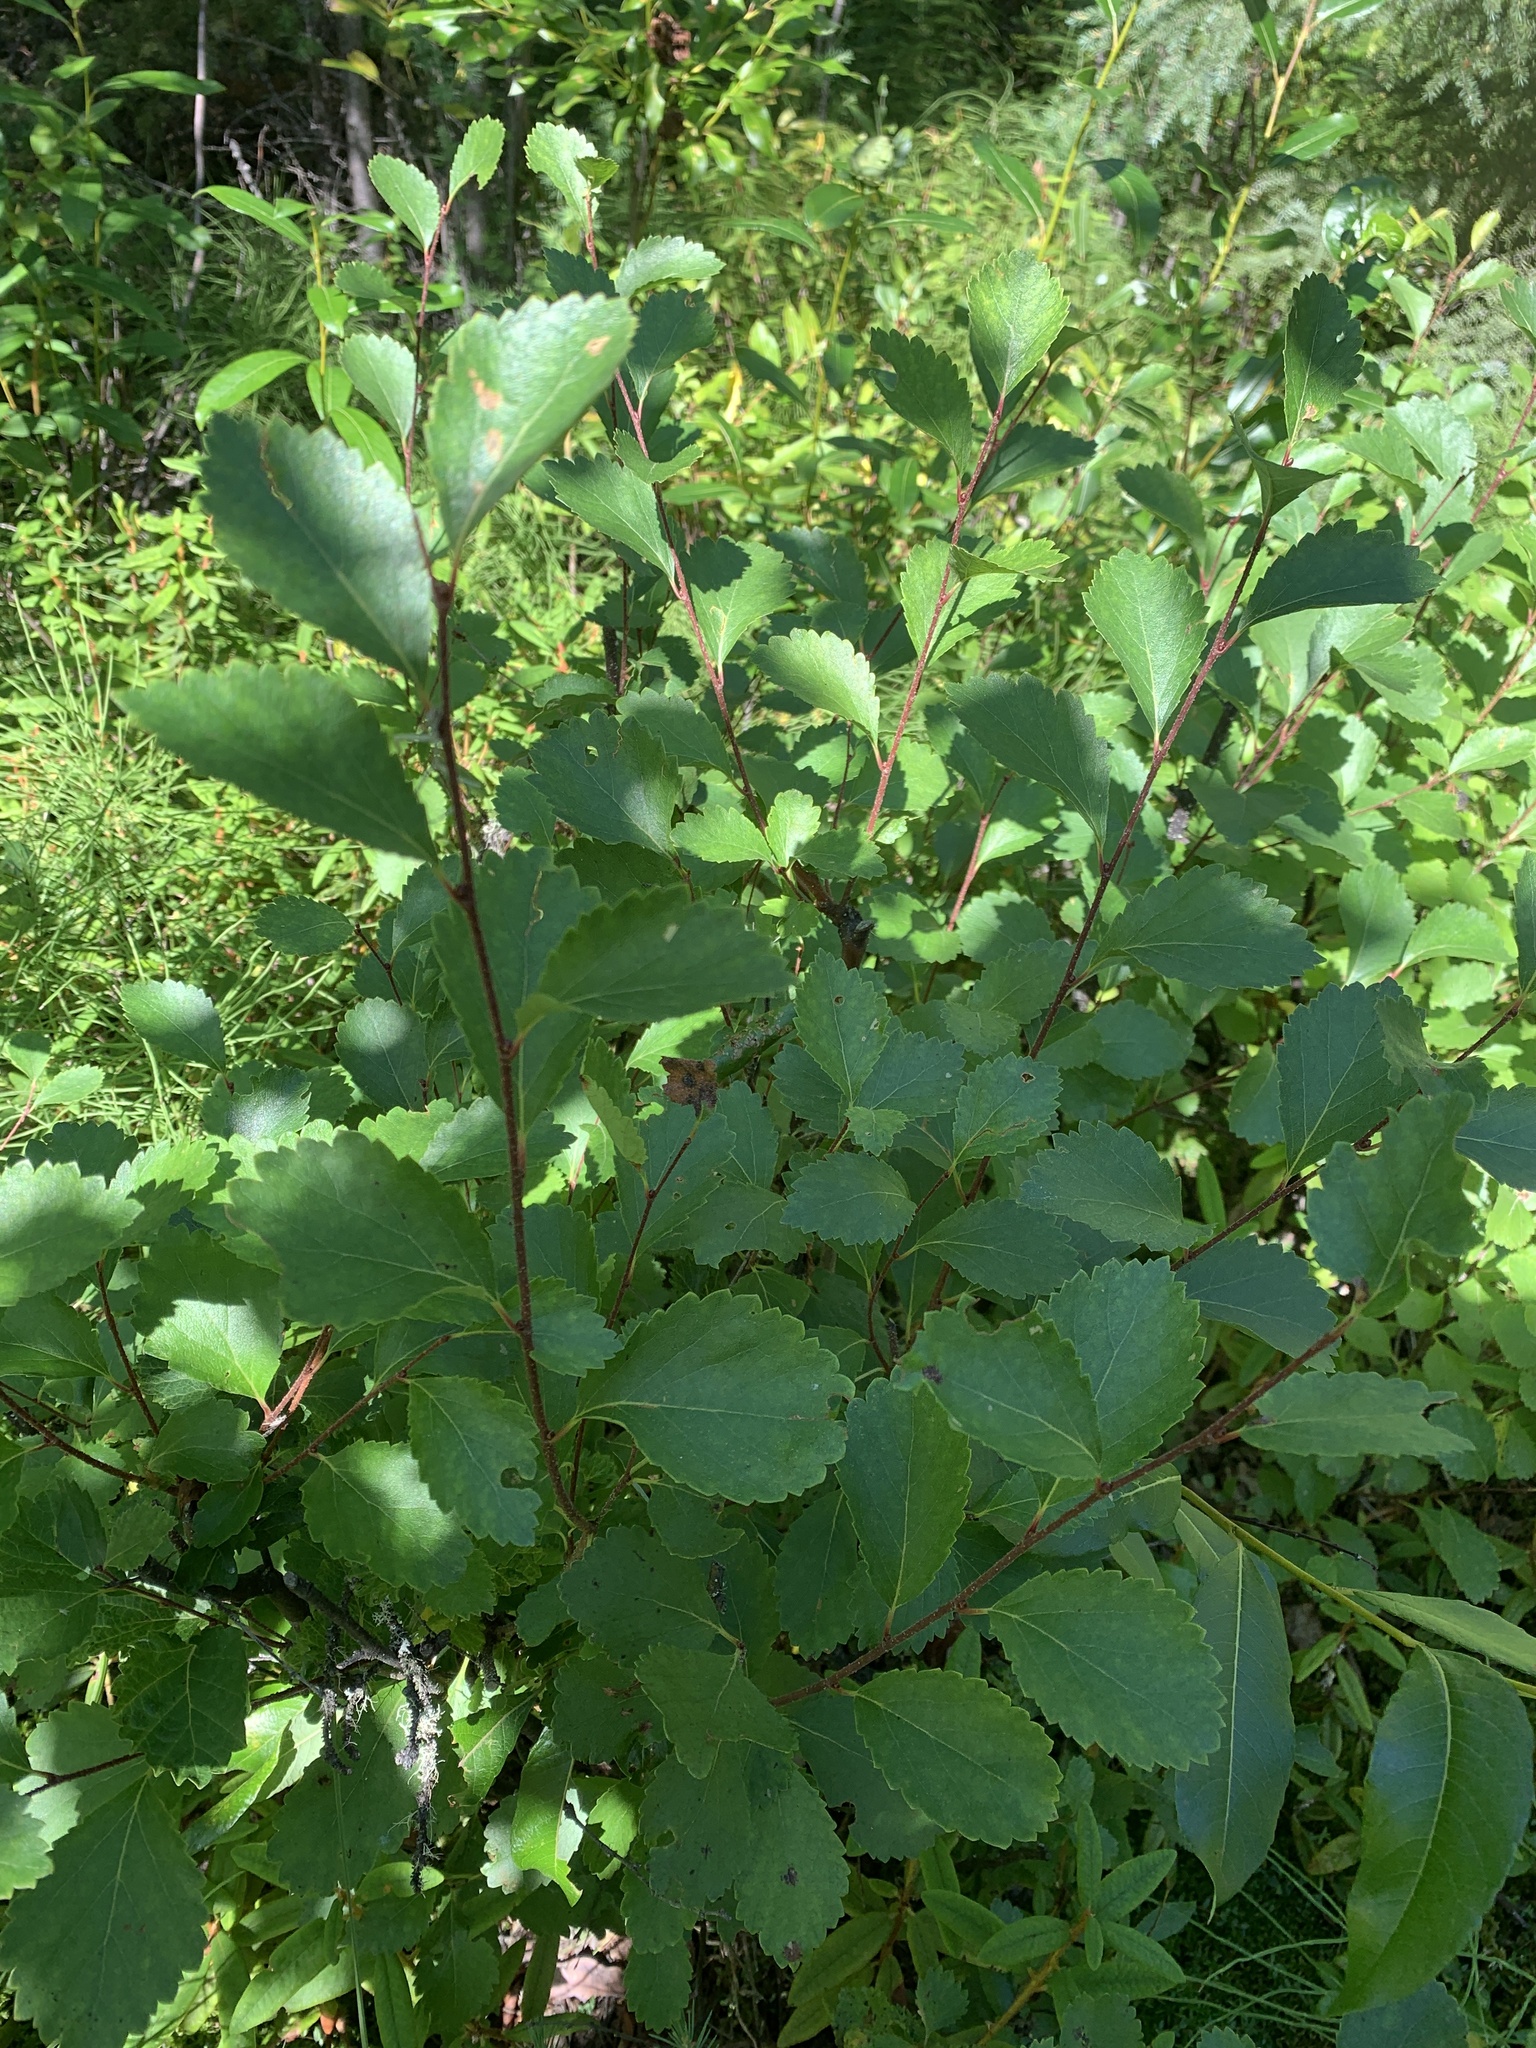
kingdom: Plantae
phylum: Tracheophyta
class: Magnoliopsida
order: Fagales
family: Betulaceae
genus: Betula
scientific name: Betula pumila
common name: Bog birch
